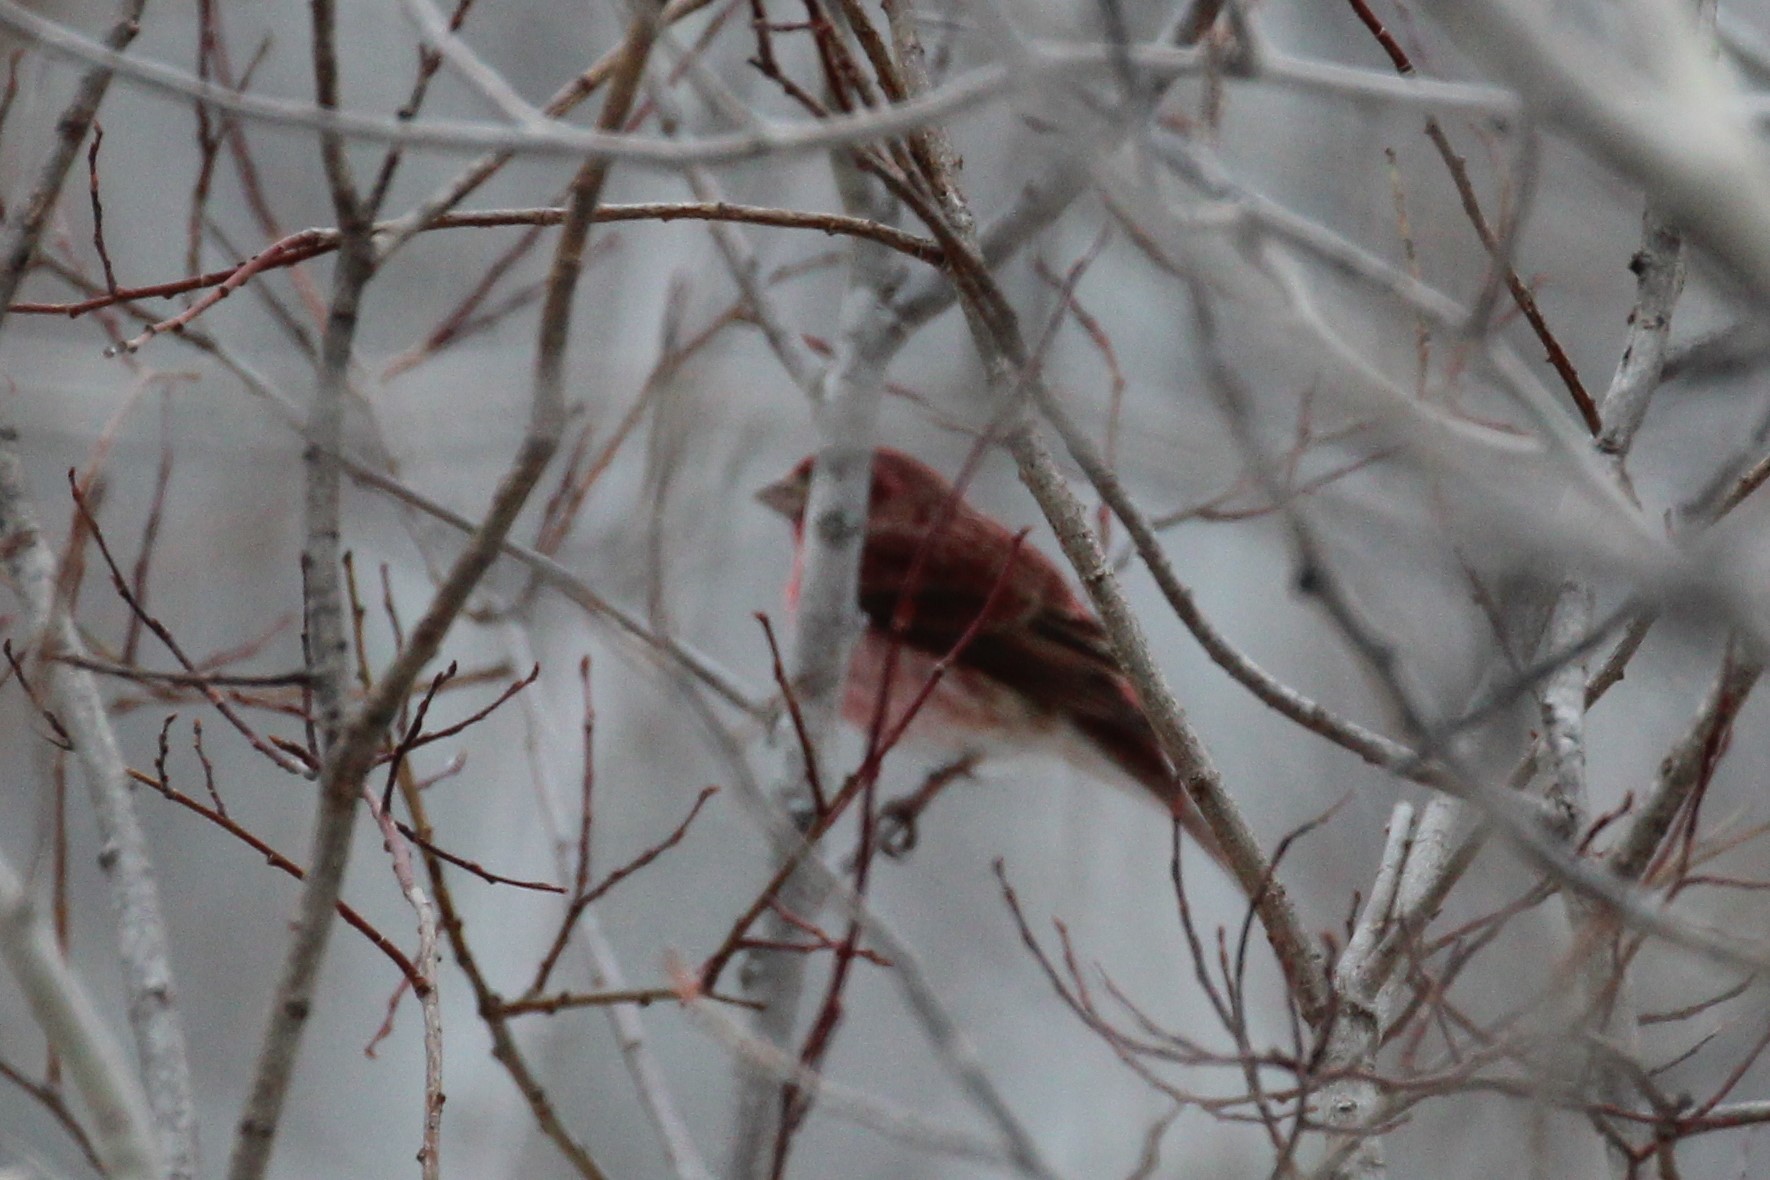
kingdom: Animalia
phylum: Chordata
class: Aves
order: Passeriformes
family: Fringillidae
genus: Haemorhous
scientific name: Haemorhous purpureus
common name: Purple finch
